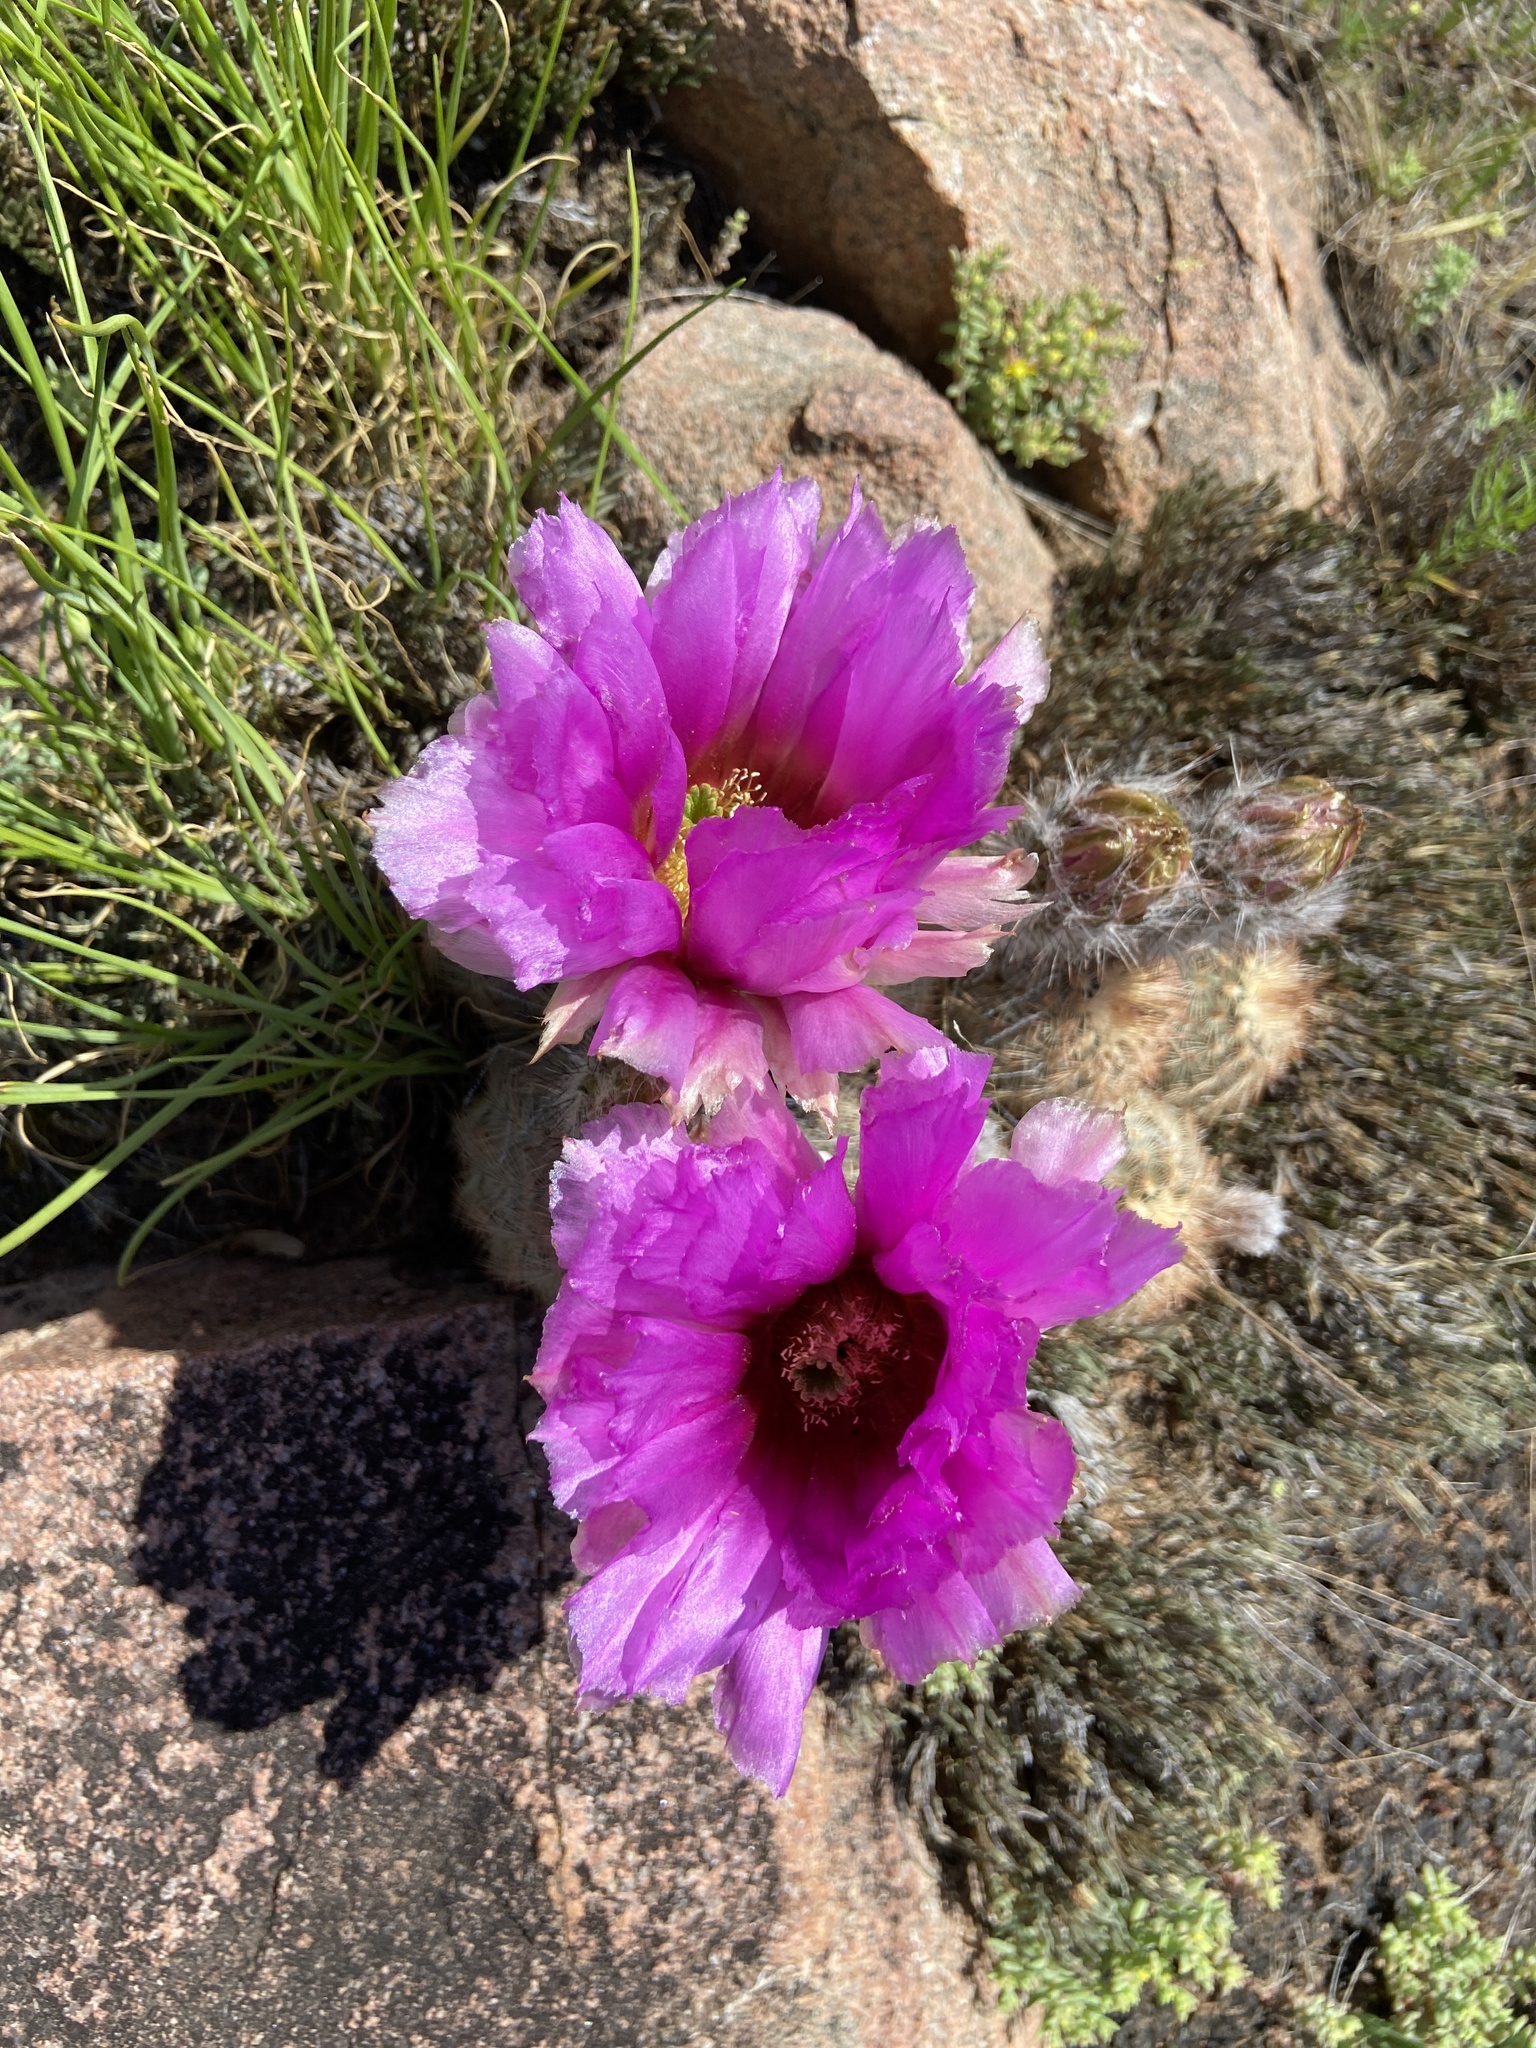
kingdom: Plantae
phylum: Tracheophyta
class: Magnoliopsida
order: Caryophyllales
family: Cactaceae
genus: Echinocereus
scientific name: Echinocereus reichenbachii
